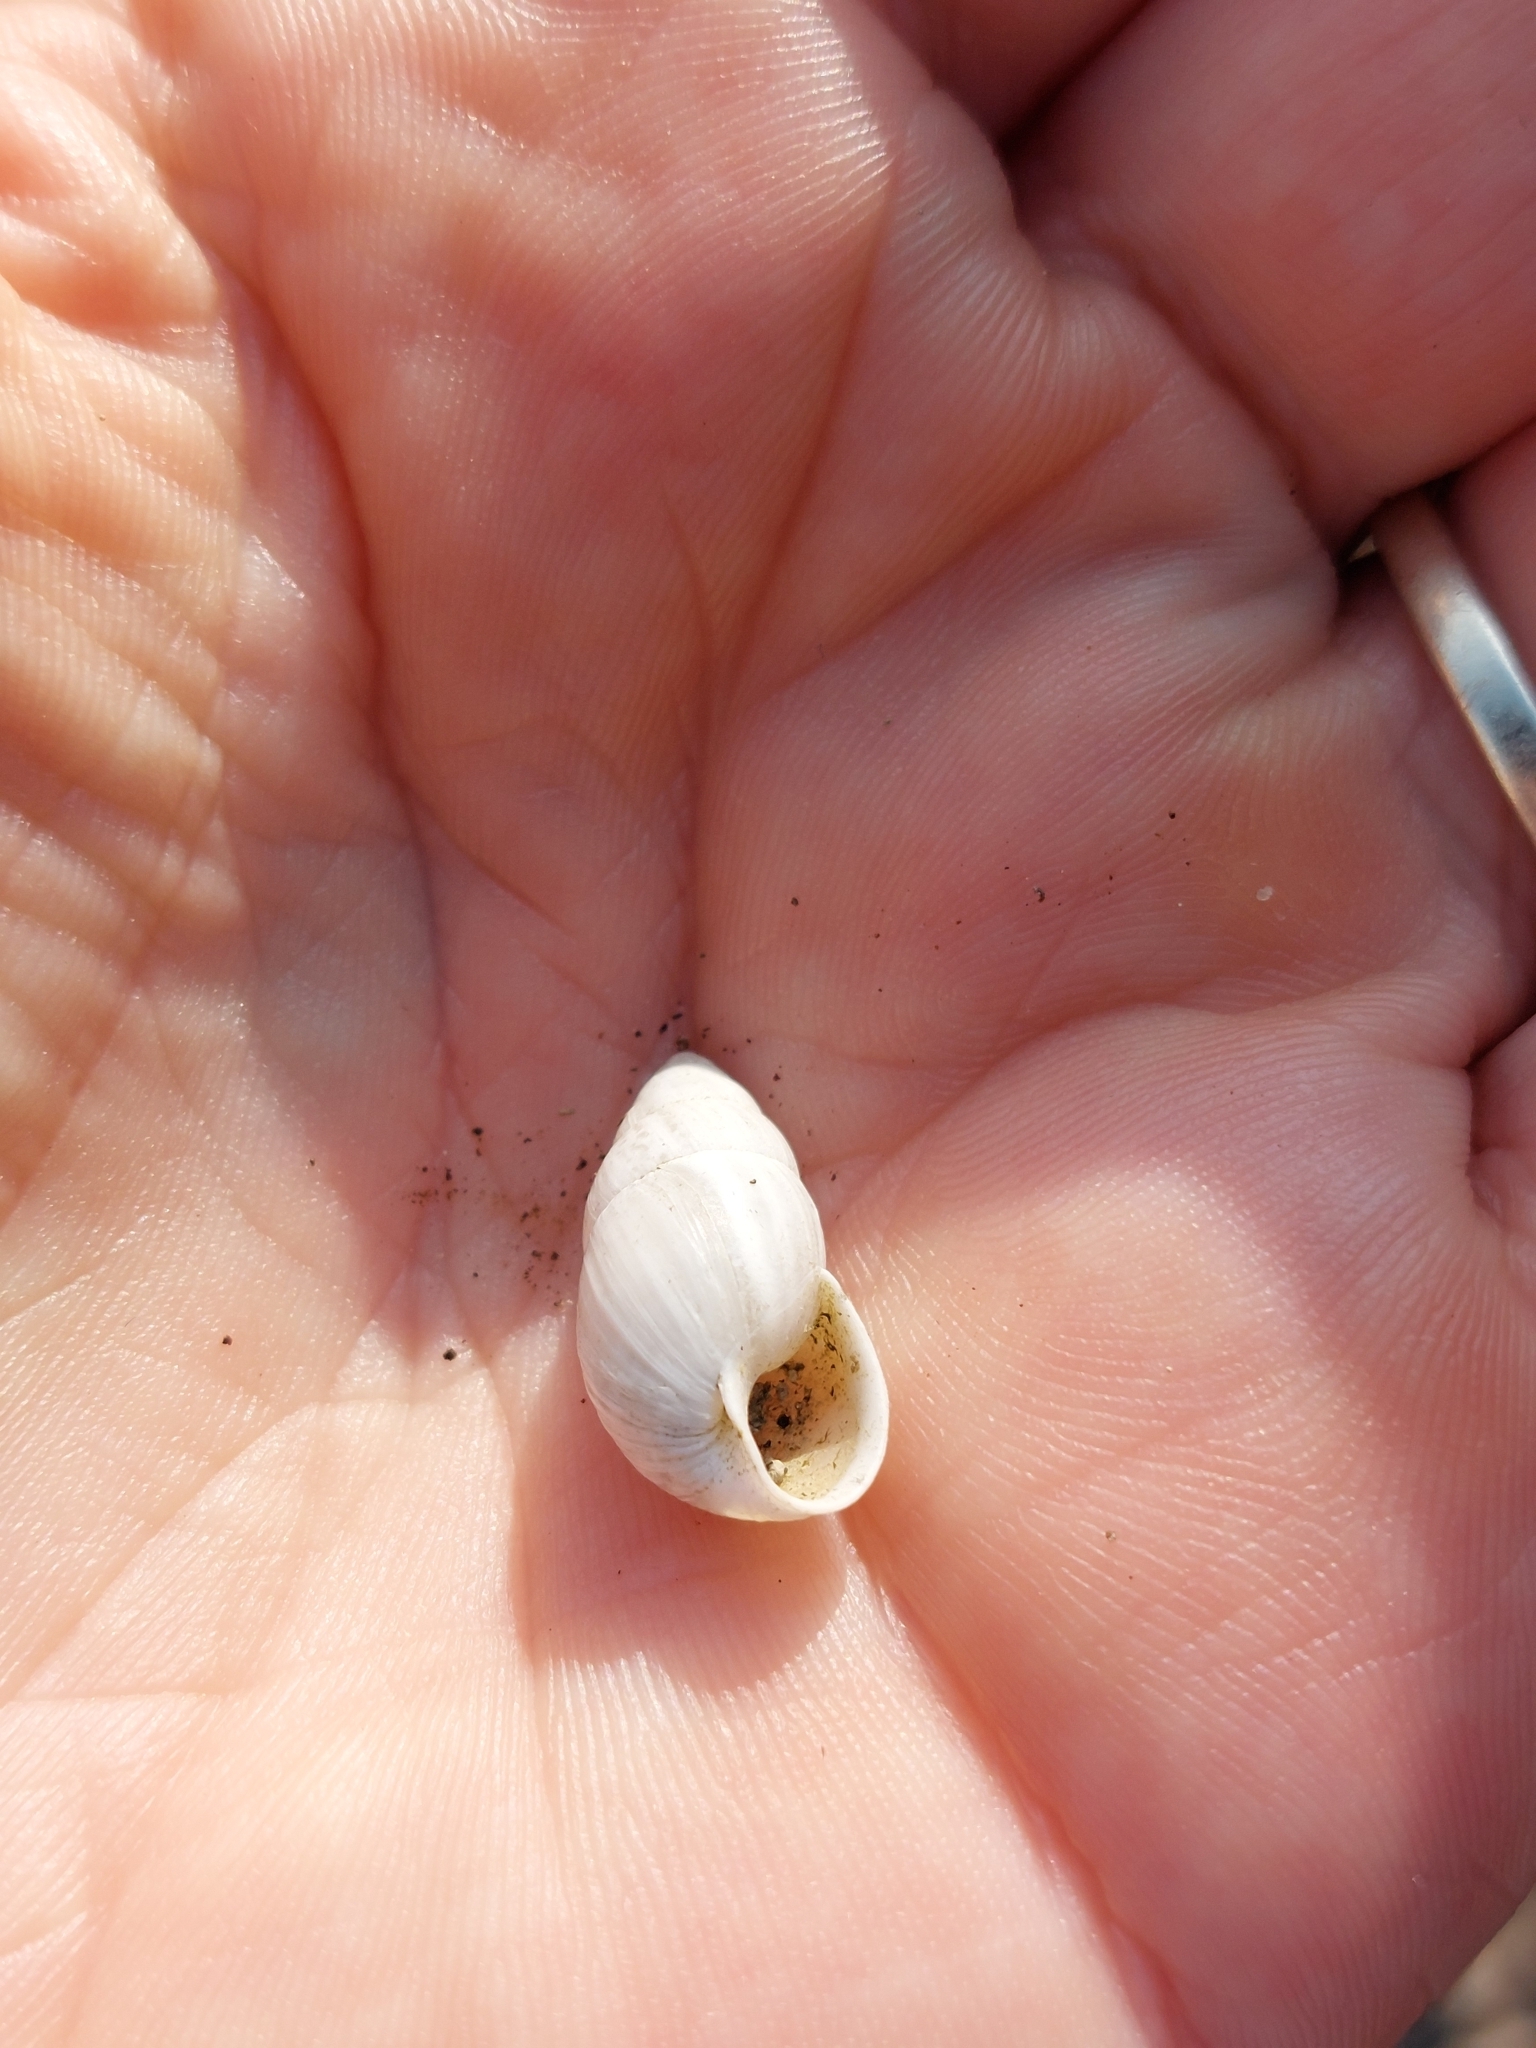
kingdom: Animalia
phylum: Mollusca
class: Gastropoda
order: Stylommatophora
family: Enidae
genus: Zebrina
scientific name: Zebrina detrita
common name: Large bulin
